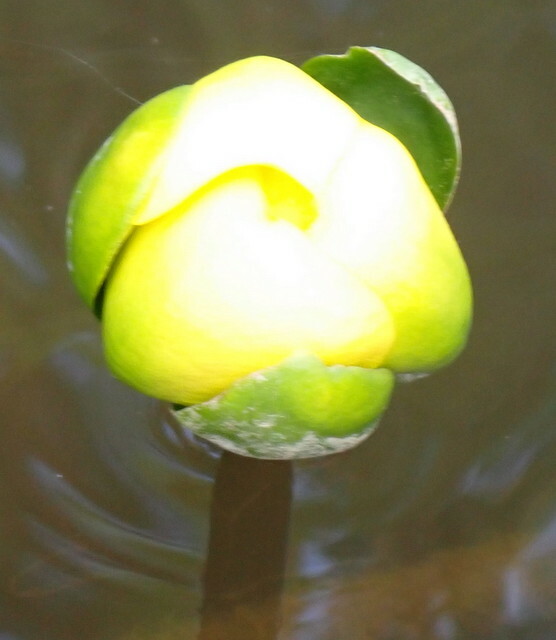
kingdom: Plantae
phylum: Tracheophyta
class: Magnoliopsida
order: Nymphaeales
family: Nymphaeaceae
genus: Nuphar
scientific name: Nuphar advena
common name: Spatter-dock
